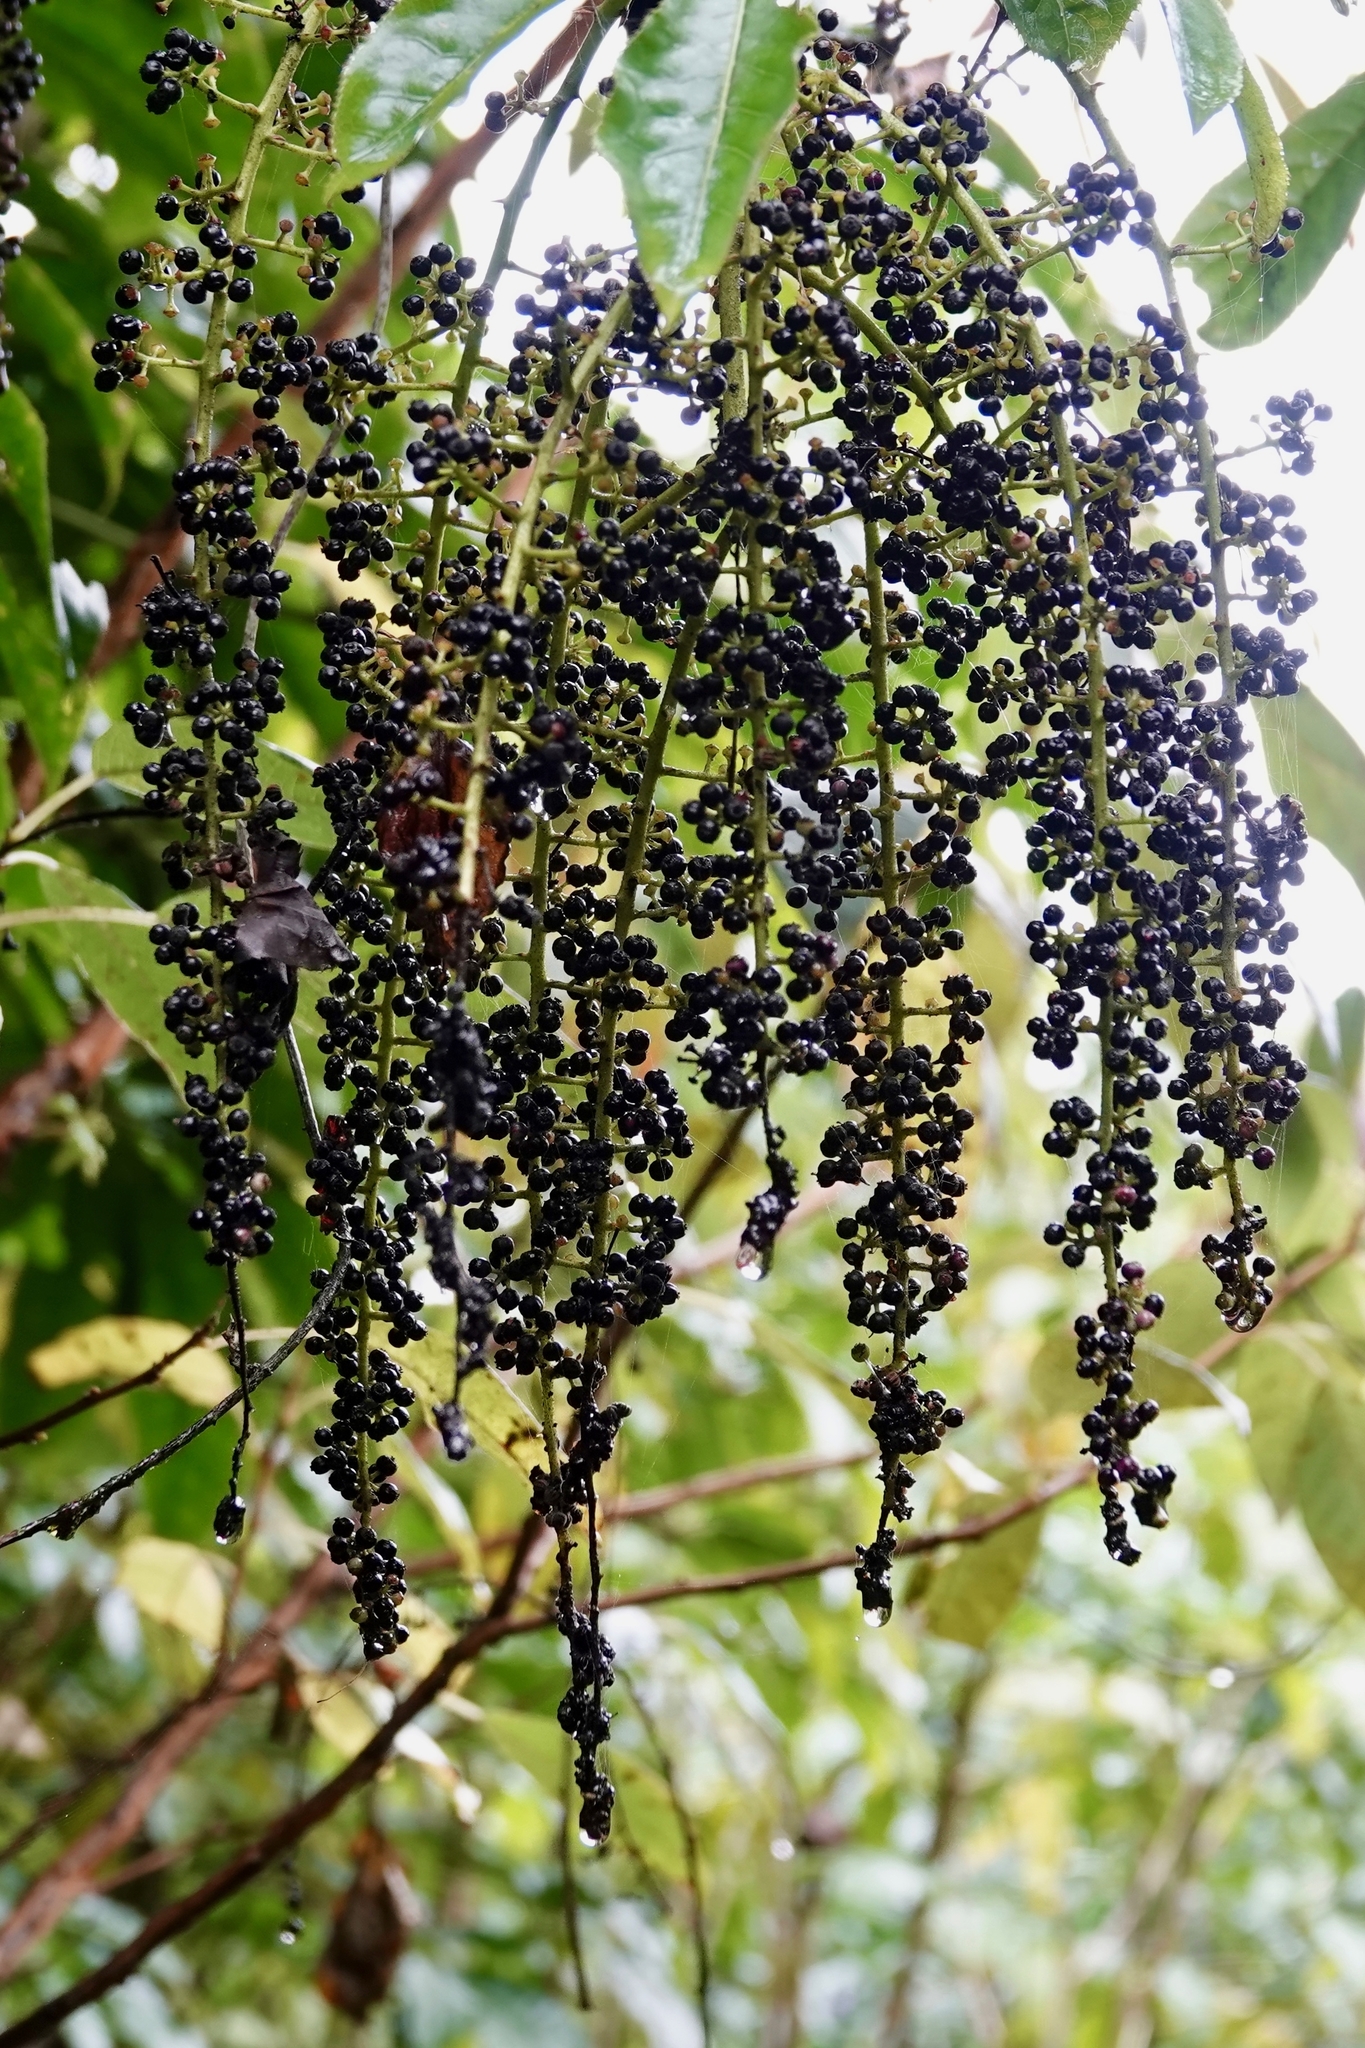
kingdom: Plantae
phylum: Tracheophyta
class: Magnoliopsida
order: Apiales
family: Araliaceae
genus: Schefflera
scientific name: Schefflera digitata
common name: Pate
